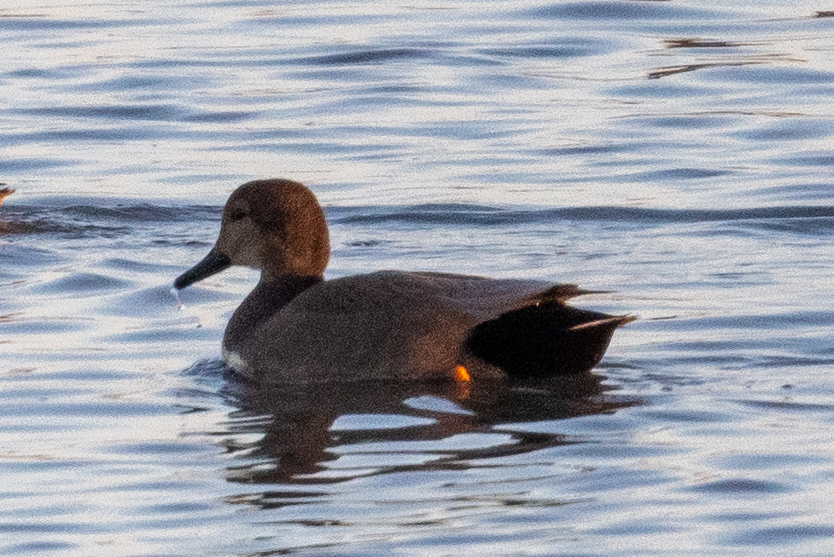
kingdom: Animalia
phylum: Chordata
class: Aves
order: Anseriformes
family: Anatidae
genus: Mareca
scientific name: Mareca strepera
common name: Gadwall
